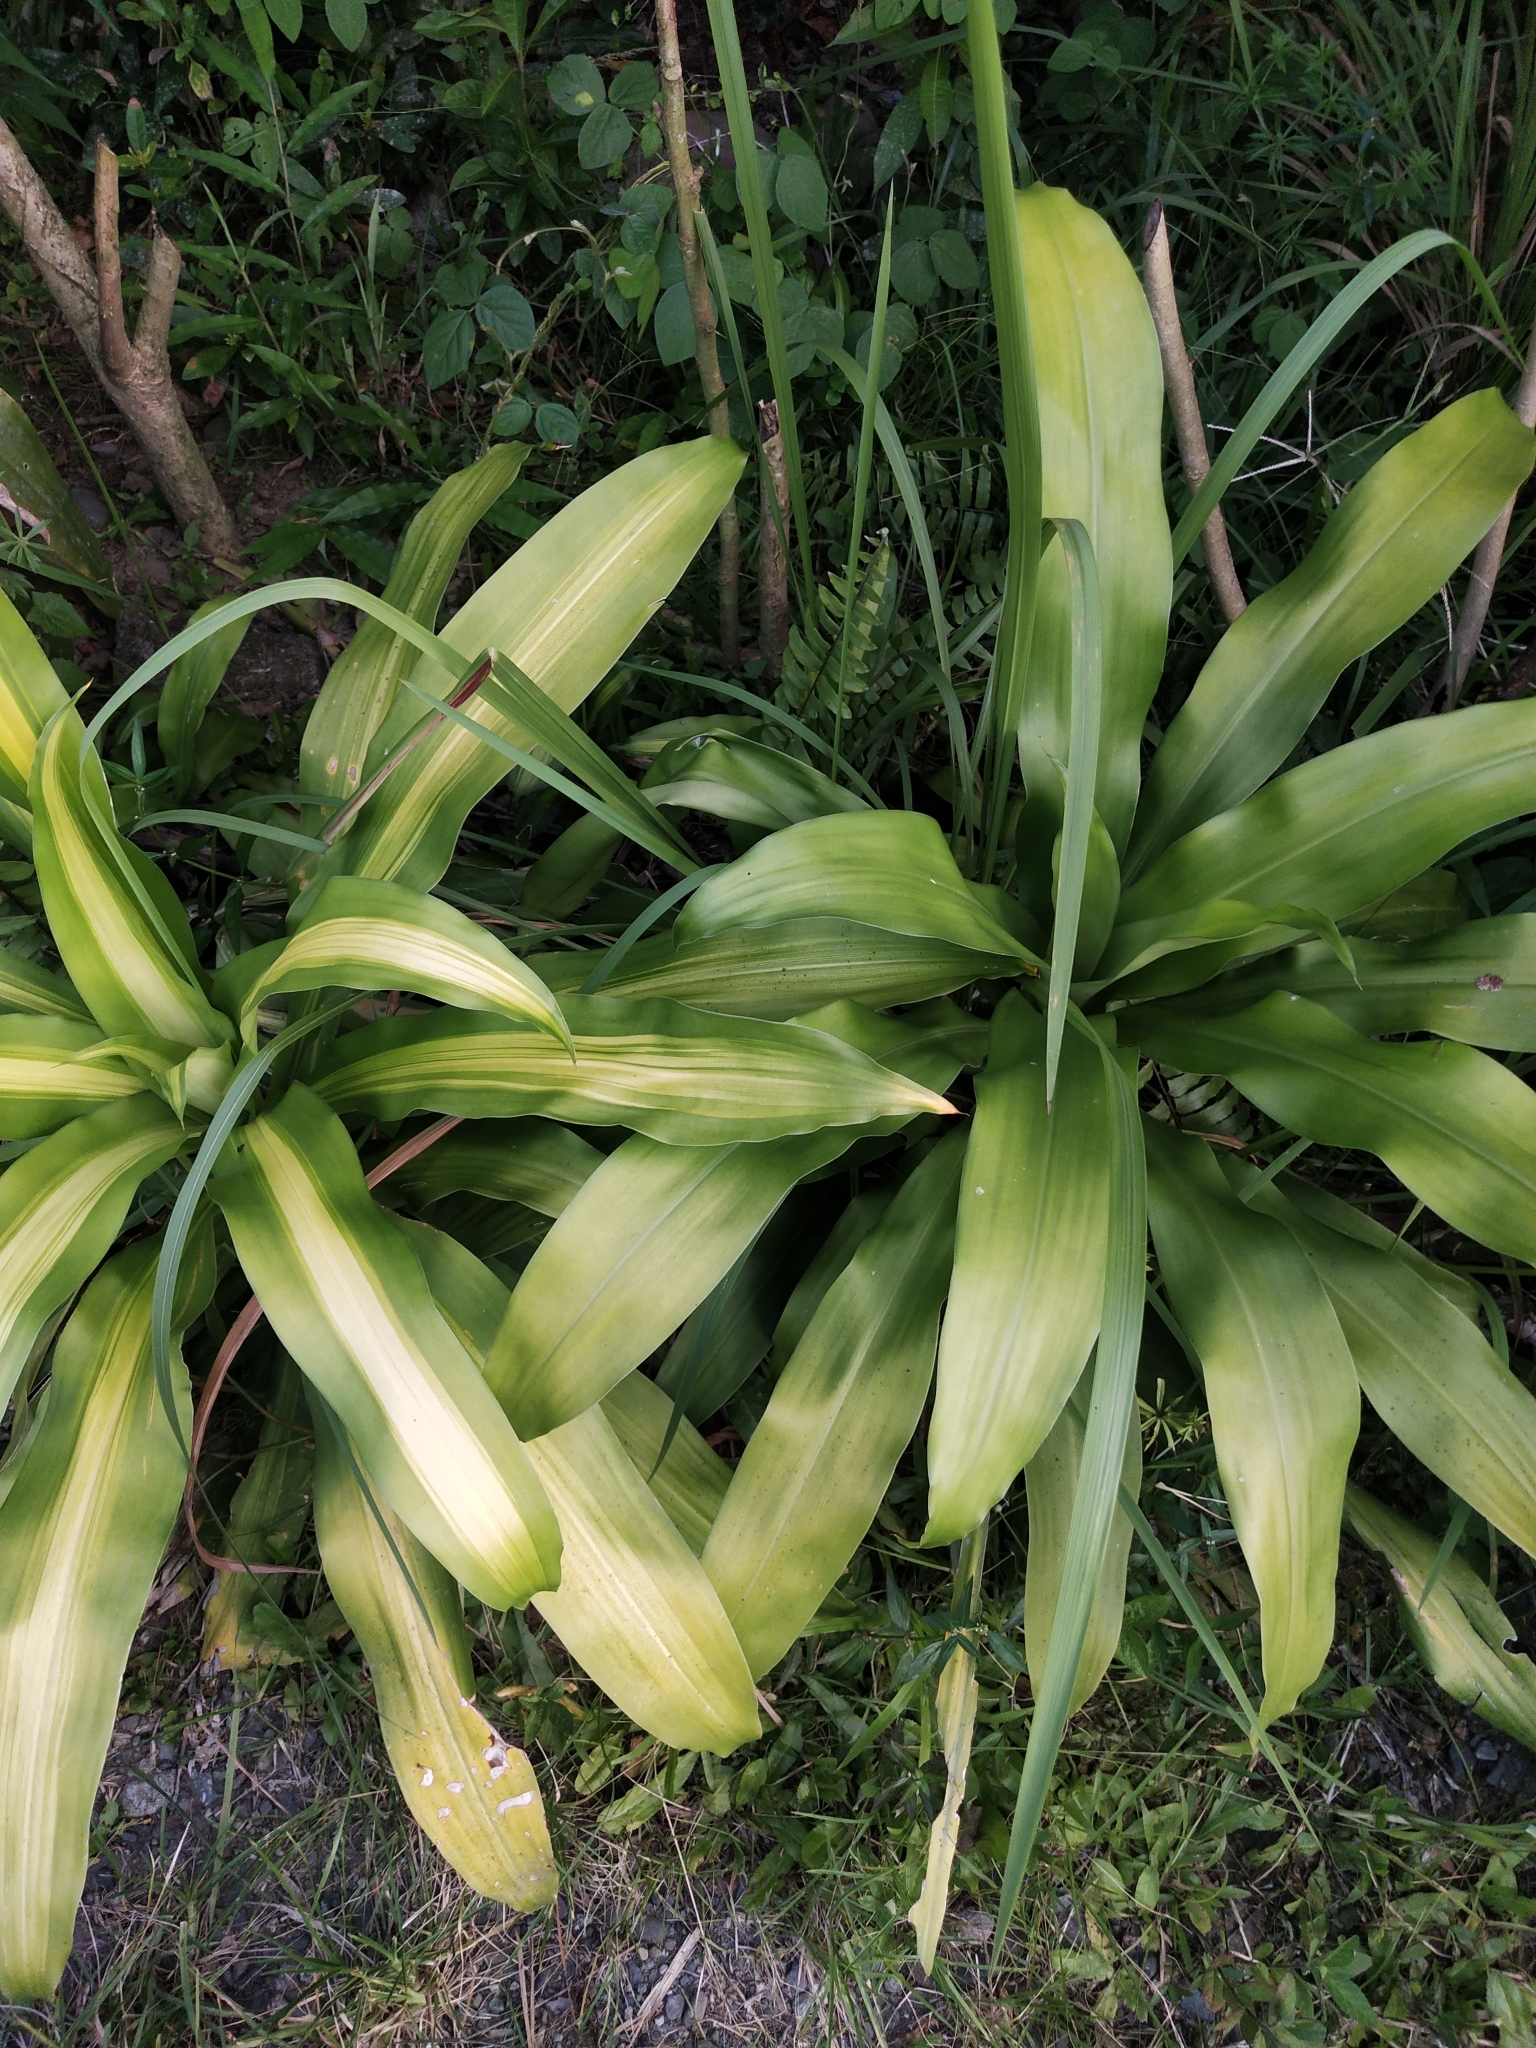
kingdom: Plantae
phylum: Tracheophyta
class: Liliopsida
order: Asparagales
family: Asparagaceae
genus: Dracaena
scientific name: Dracaena fragrans
